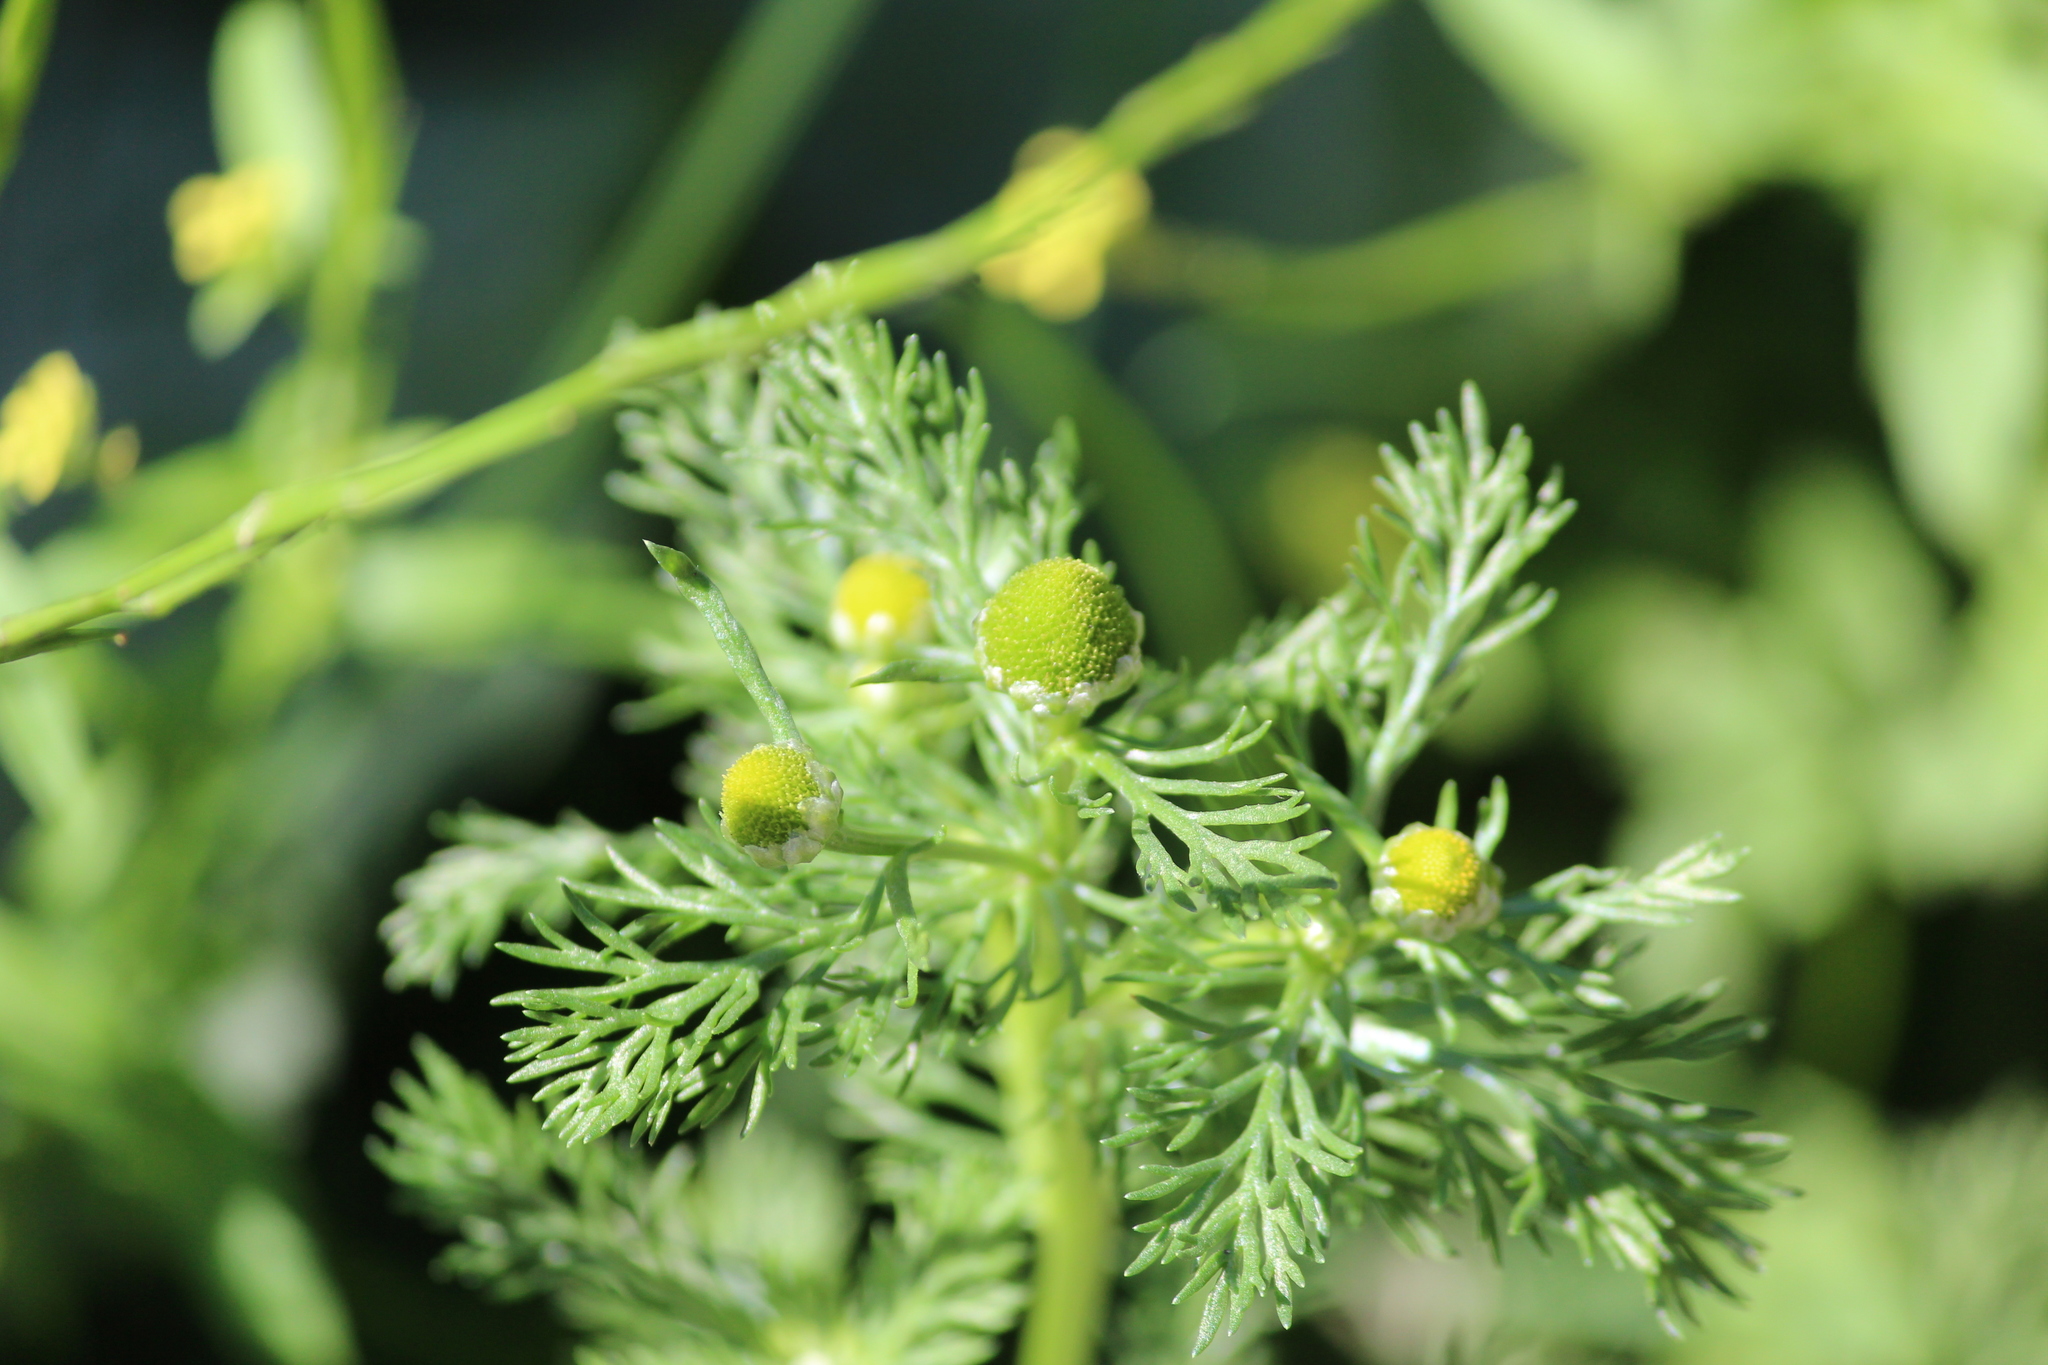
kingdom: Plantae
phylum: Tracheophyta
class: Magnoliopsida
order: Asterales
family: Asteraceae
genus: Matricaria
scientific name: Matricaria discoidea
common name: Disc mayweed
